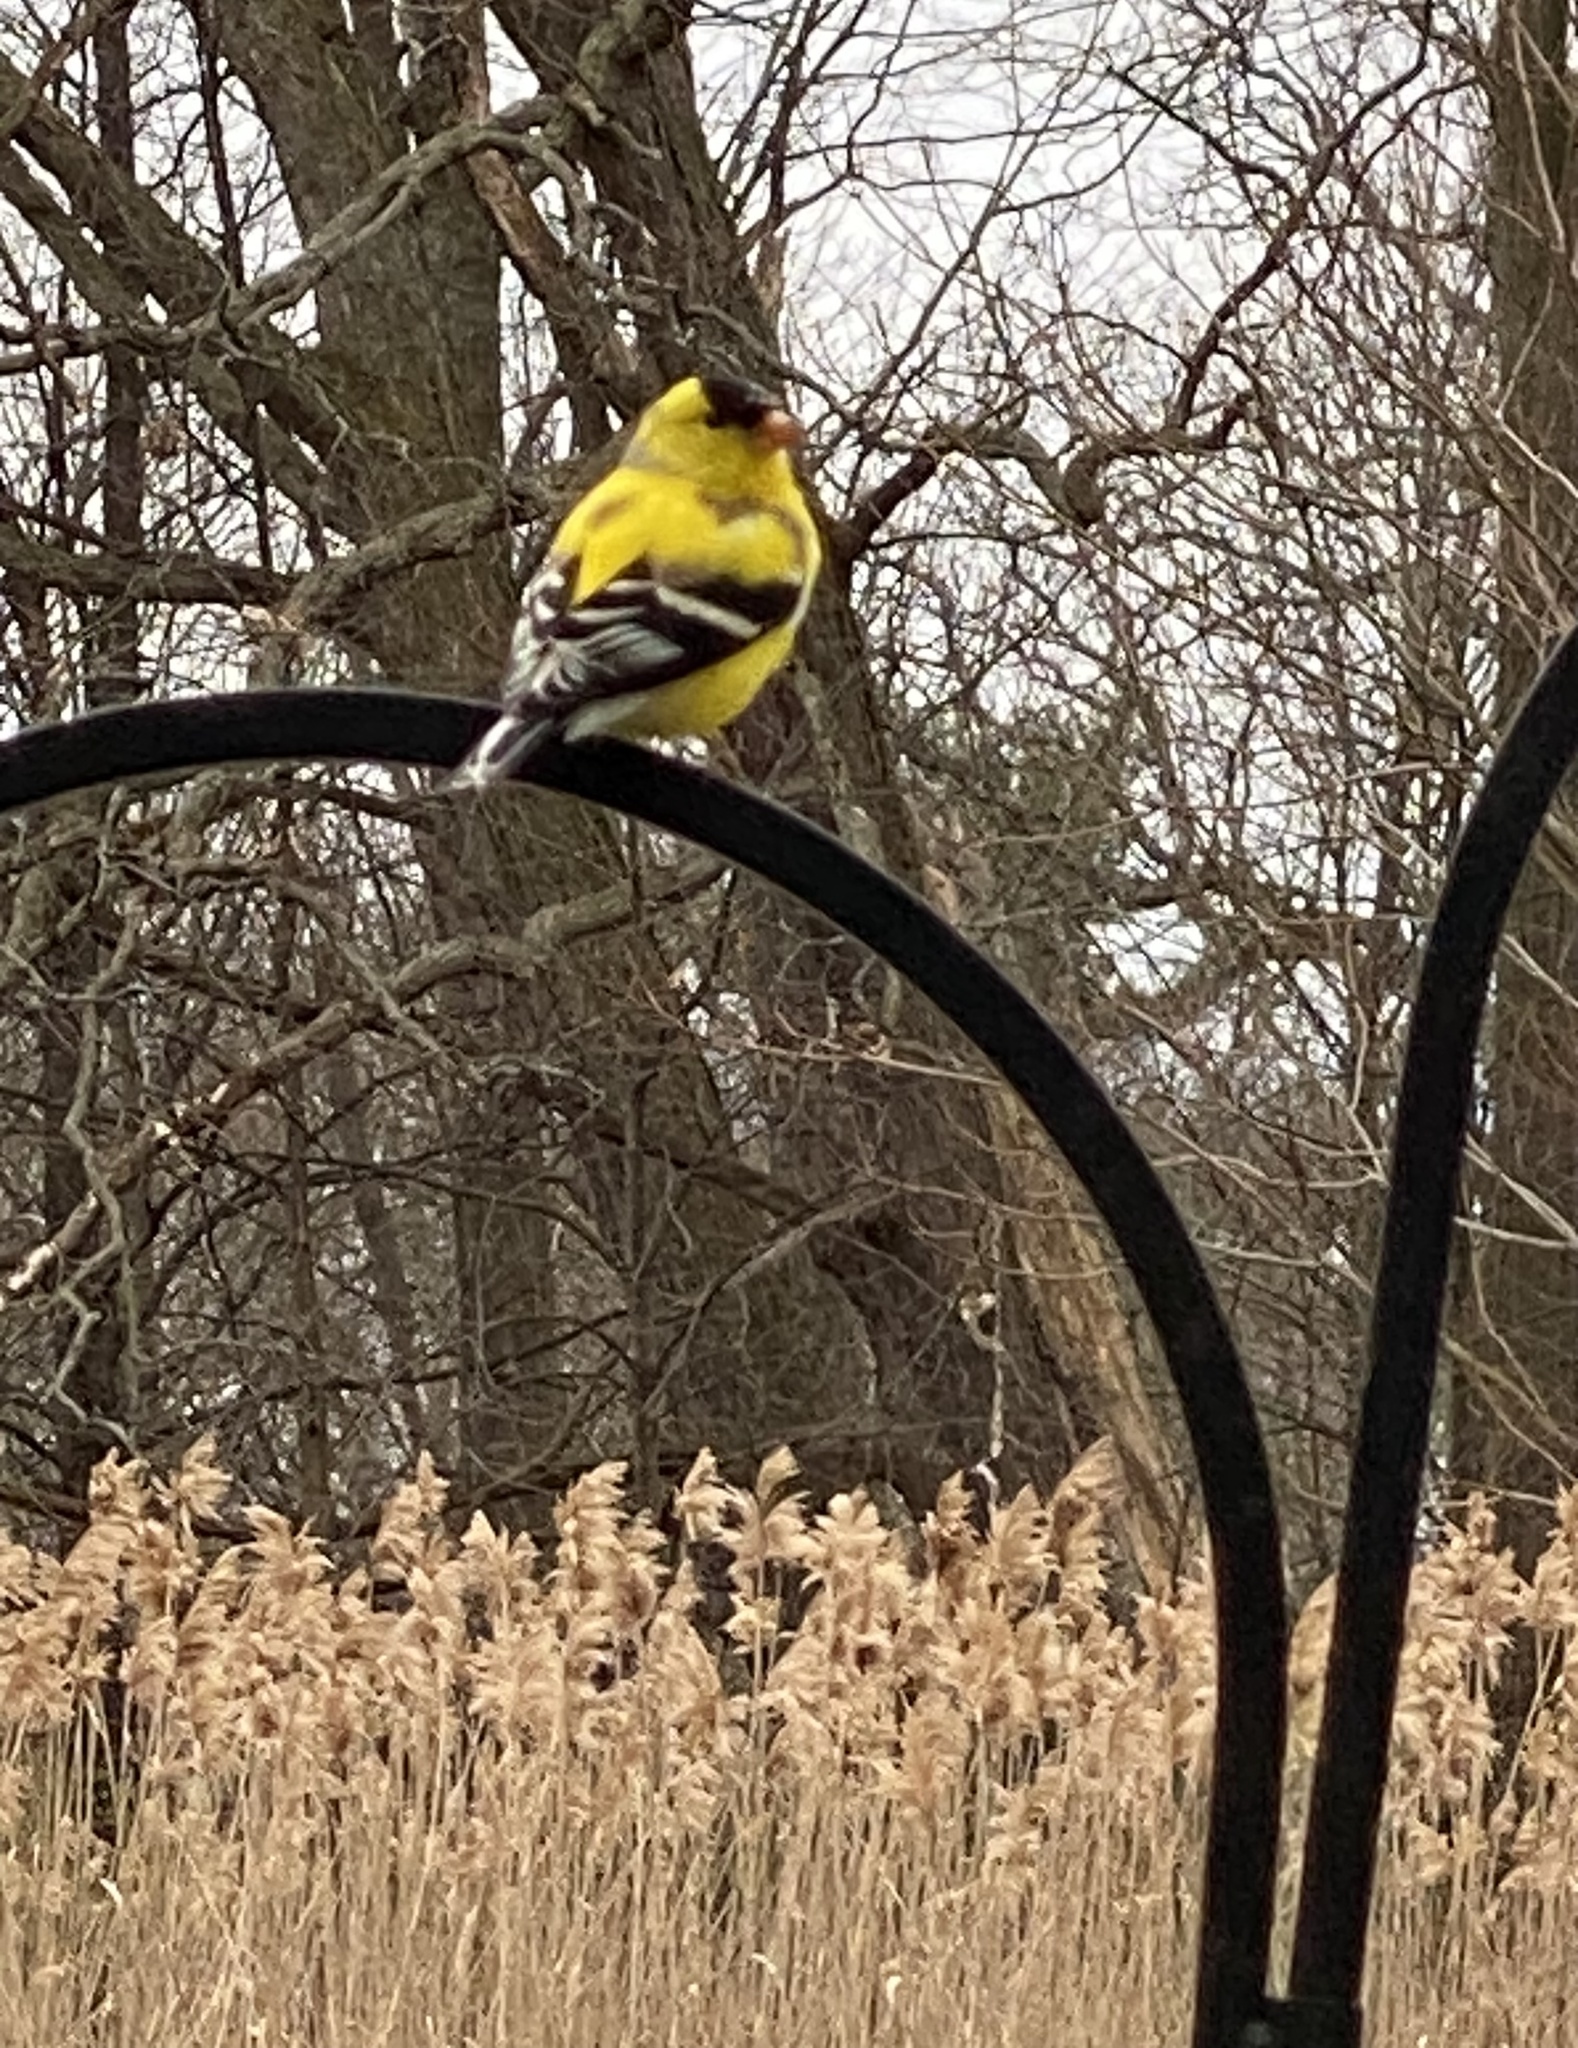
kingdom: Animalia
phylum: Chordata
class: Aves
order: Passeriformes
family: Fringillidae
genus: Spinus
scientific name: Spinus tristis
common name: American goldfinch
